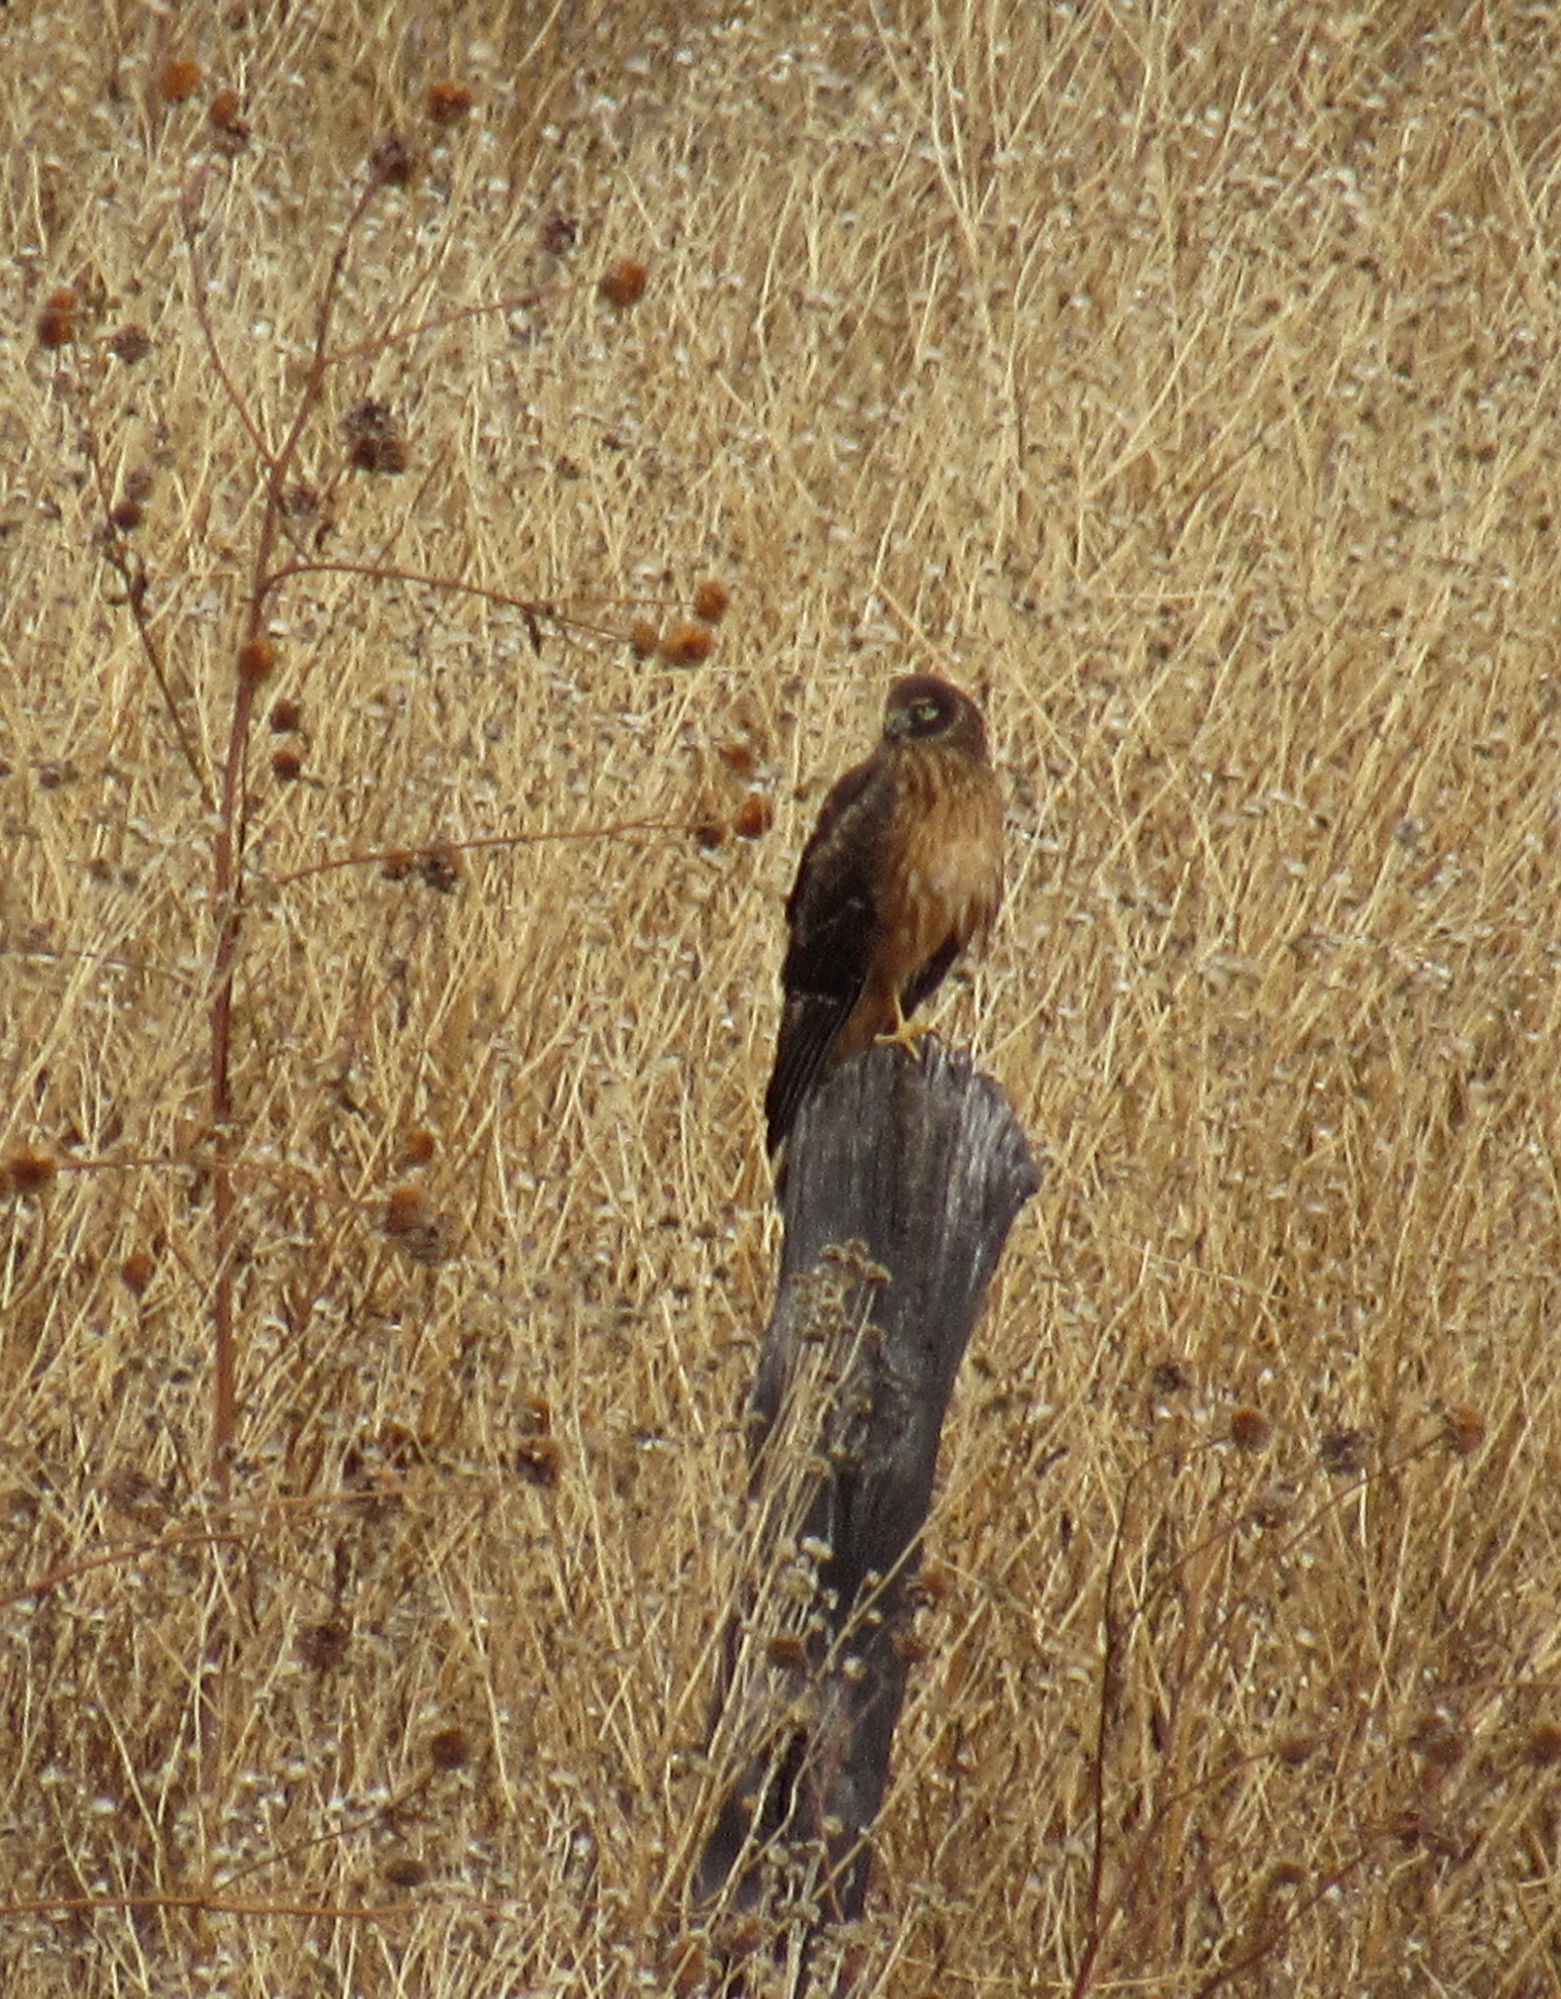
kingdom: Animalia
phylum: Chordata
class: Aves
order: Accipitriformes
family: Accipitridae
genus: Circus
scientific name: Circus cyaneus
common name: Hen harrier
